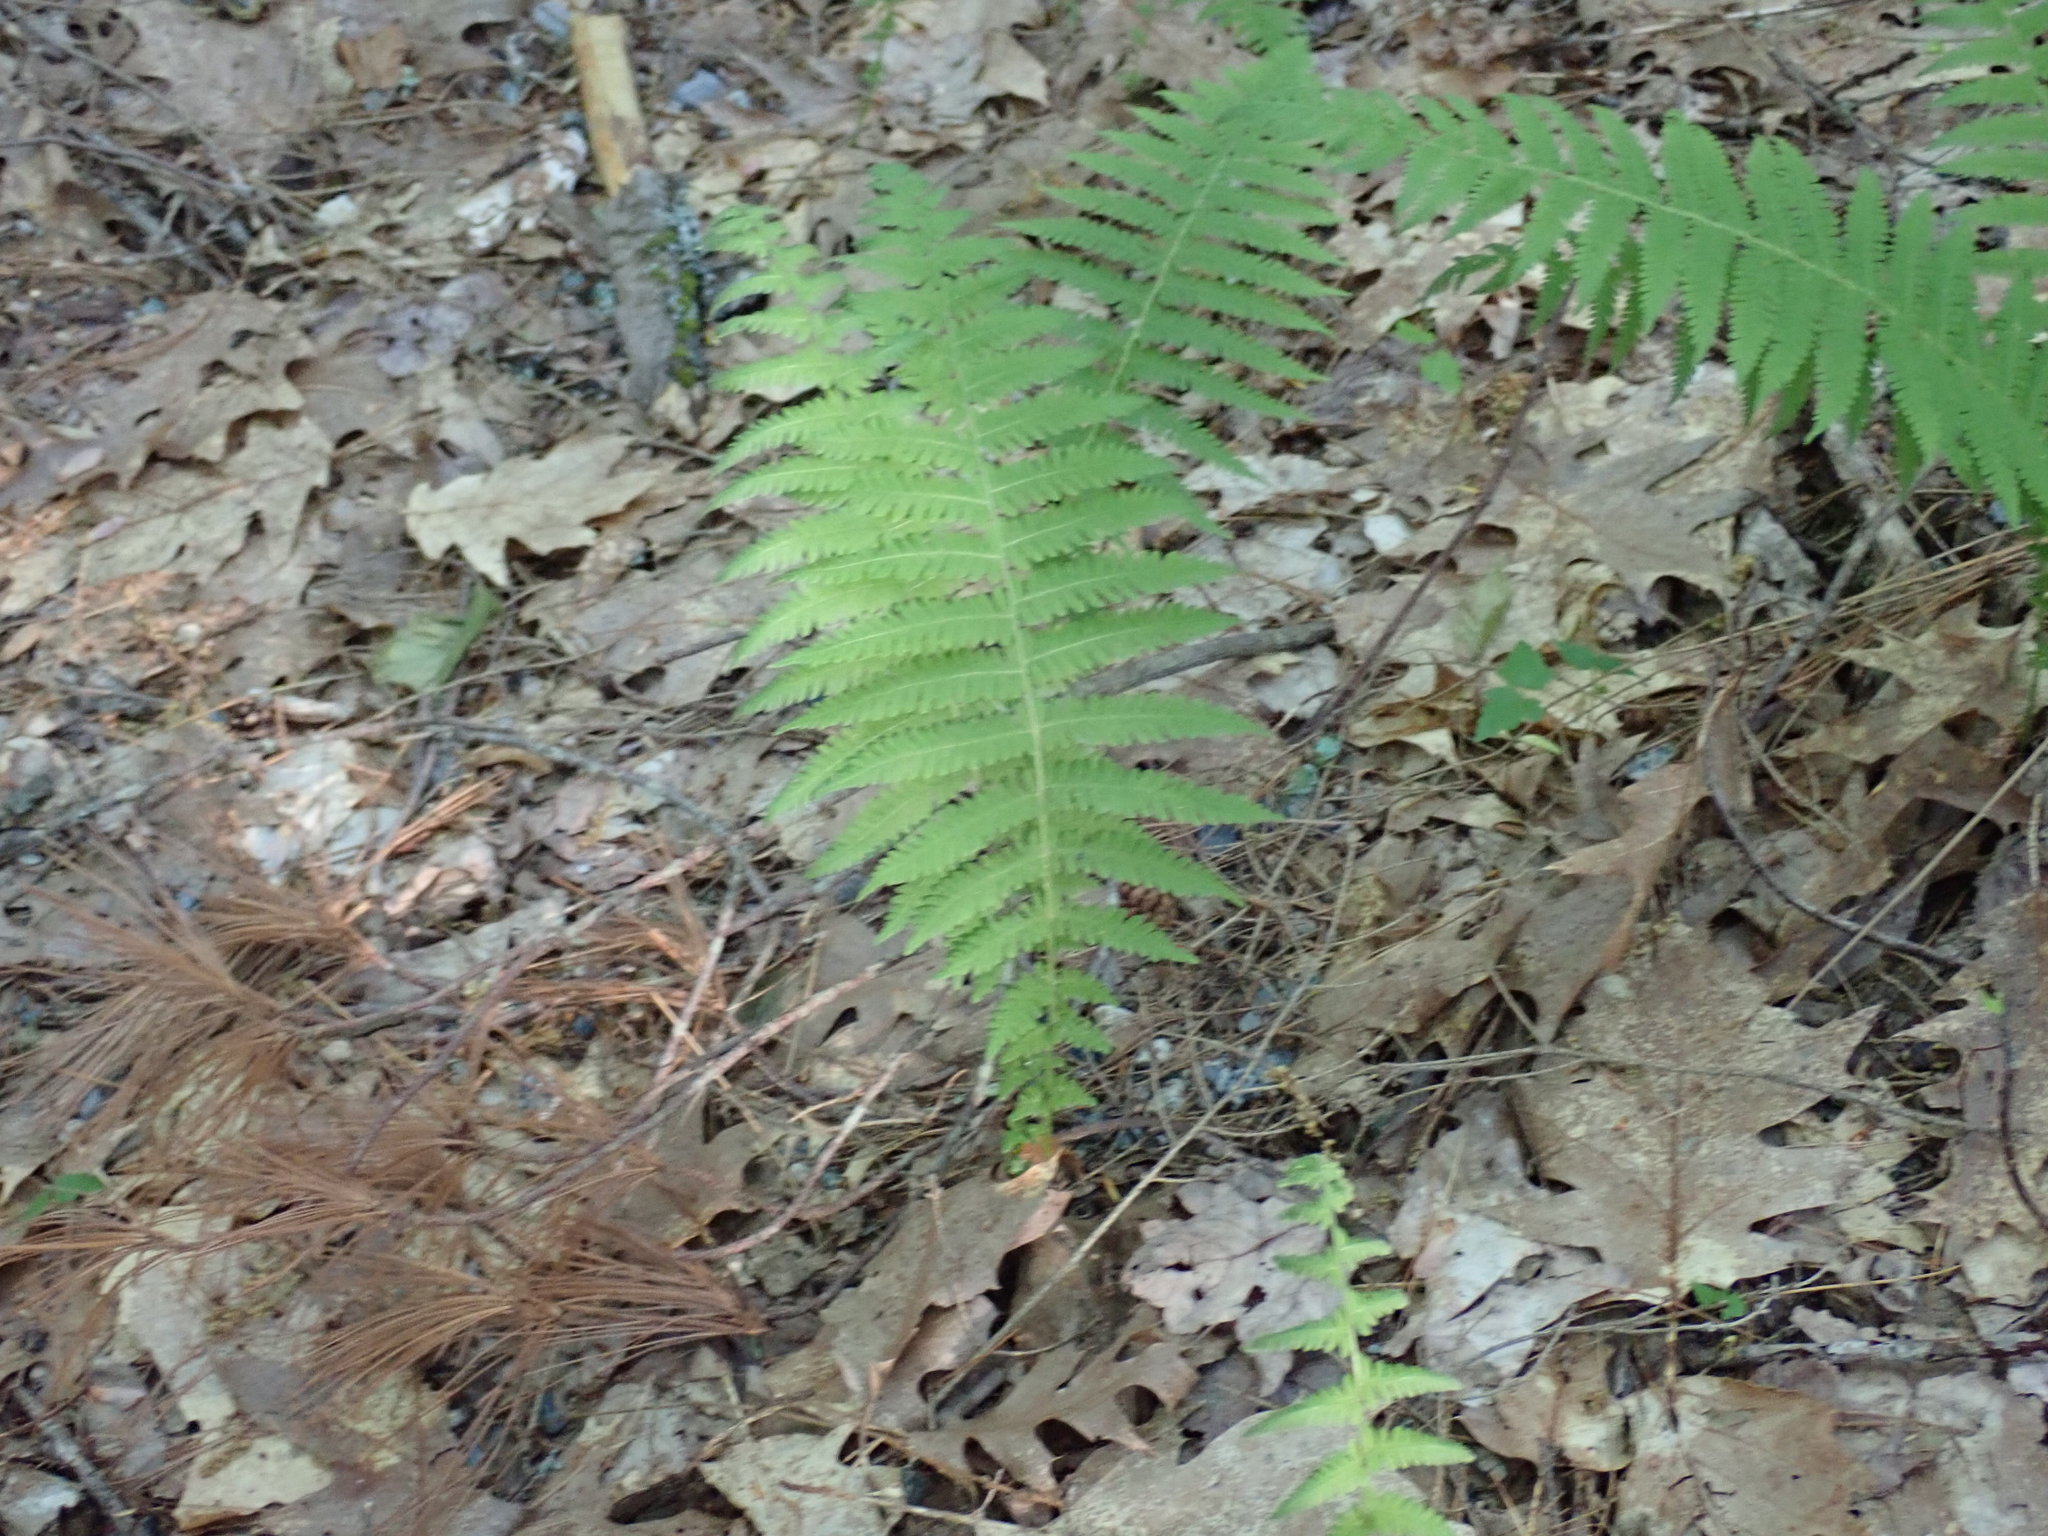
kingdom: Plantae
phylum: Tracheophyta
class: Polypodiopsida
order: Polypodiales
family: Thelypteridaceae
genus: Amauropelta
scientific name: Amauropelta noveboracensis
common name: New york fern
